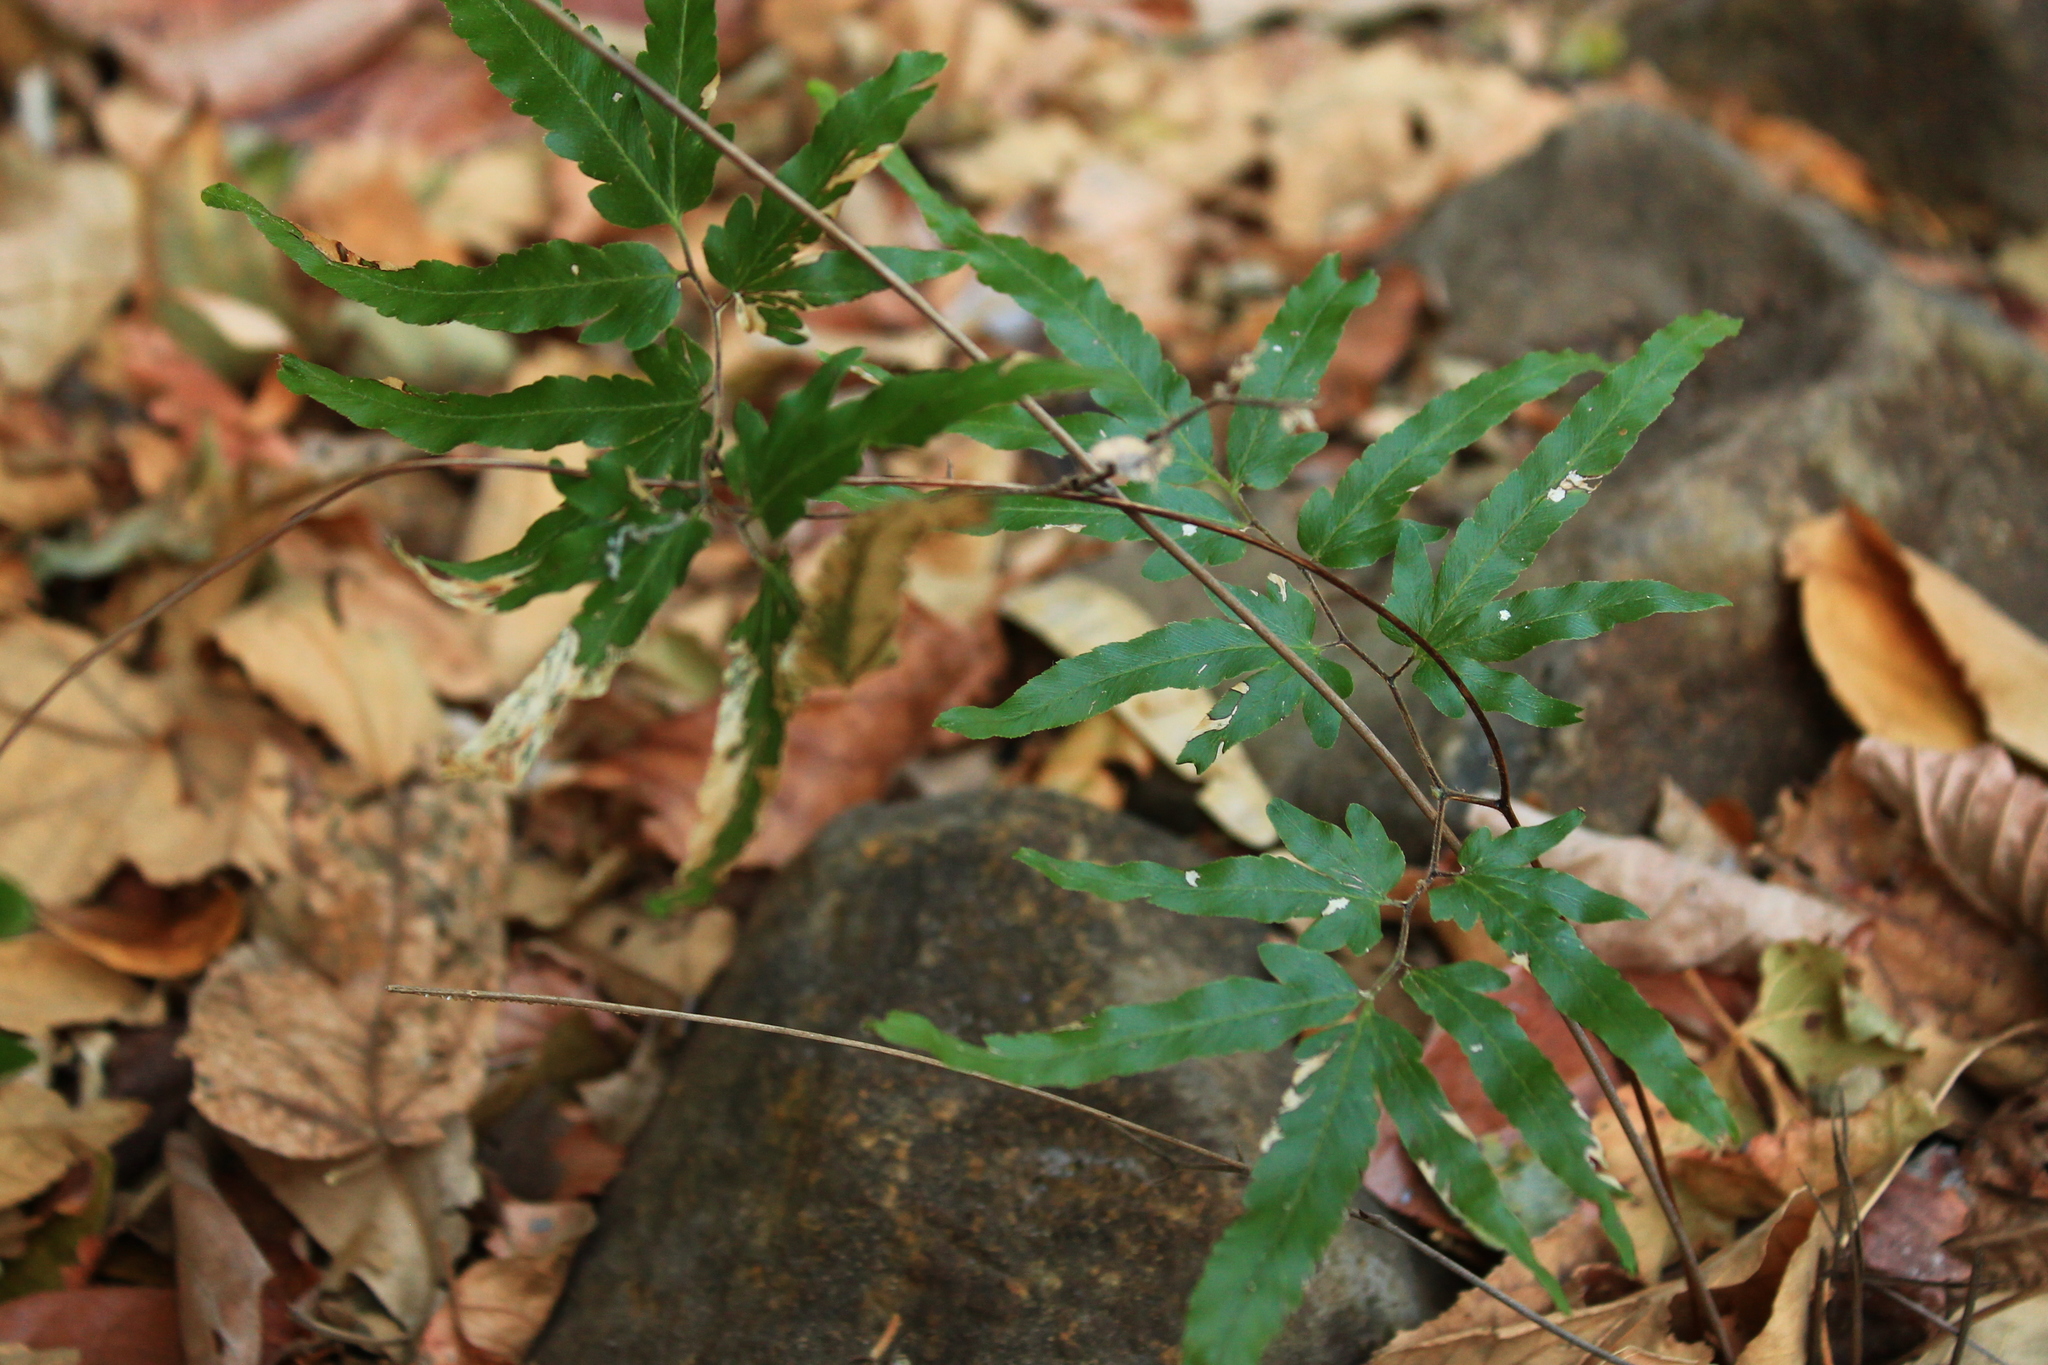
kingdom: Plantae
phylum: Tracheophyta
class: Polypodiopsida
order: Schizaeales
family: Lygodiaceae
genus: Lygodium
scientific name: Lygodium venustum
